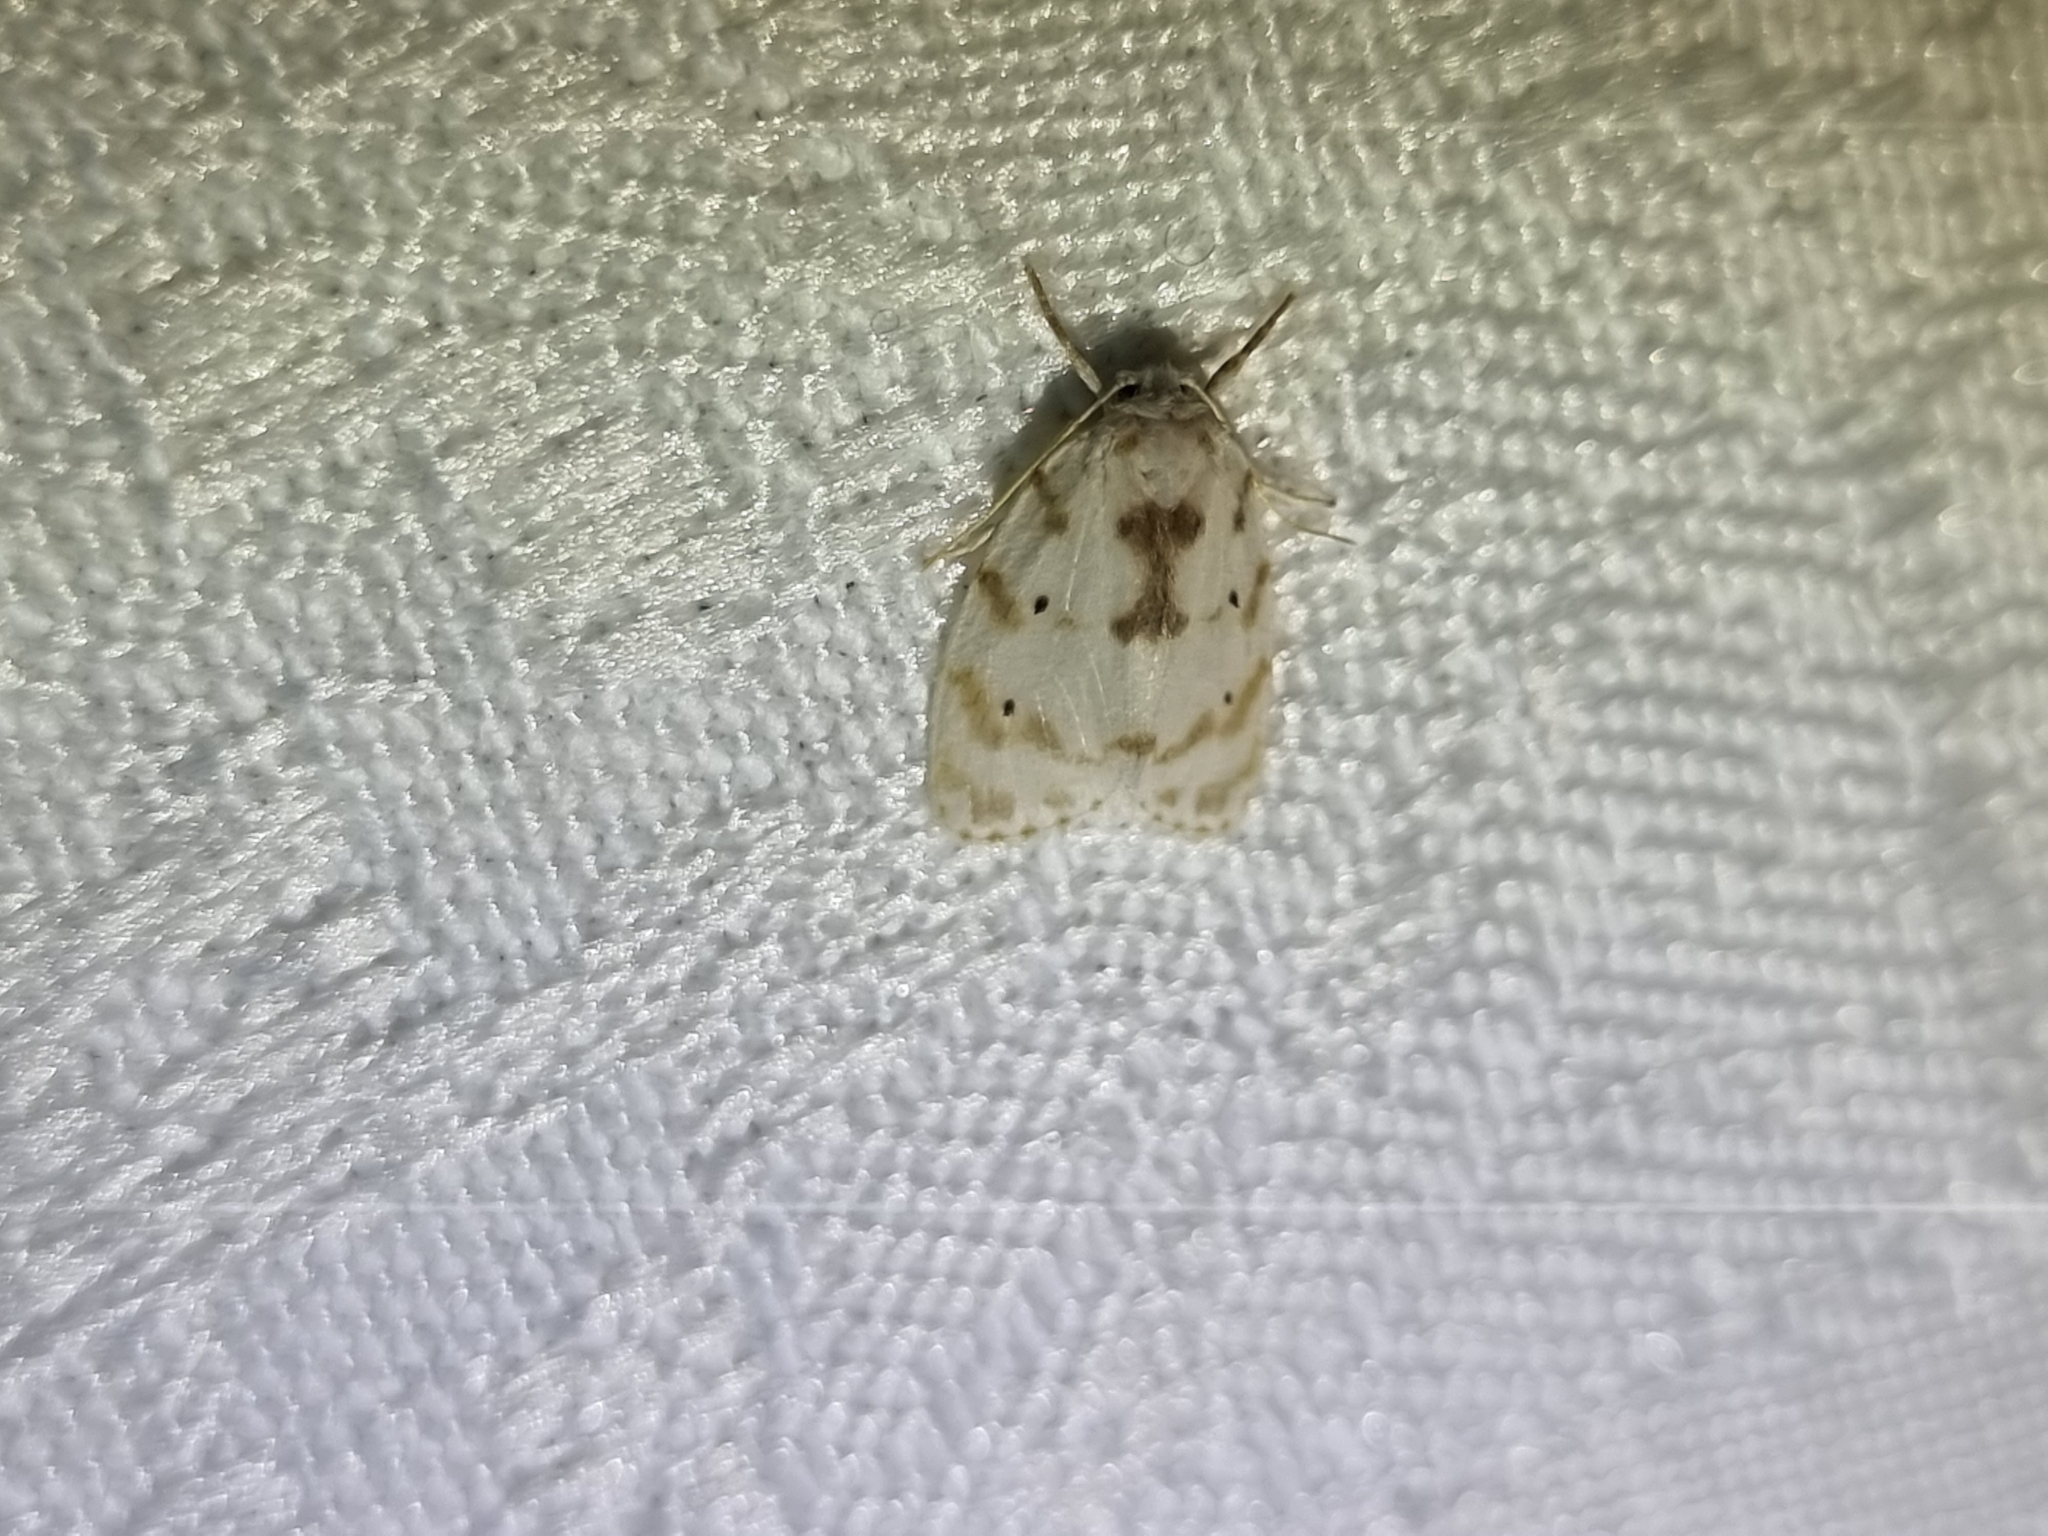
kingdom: Animalia
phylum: Arthropoda
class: Insecta
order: Lepidoptera
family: Erebidae
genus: Schistophleps
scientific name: Schistophleps albida
